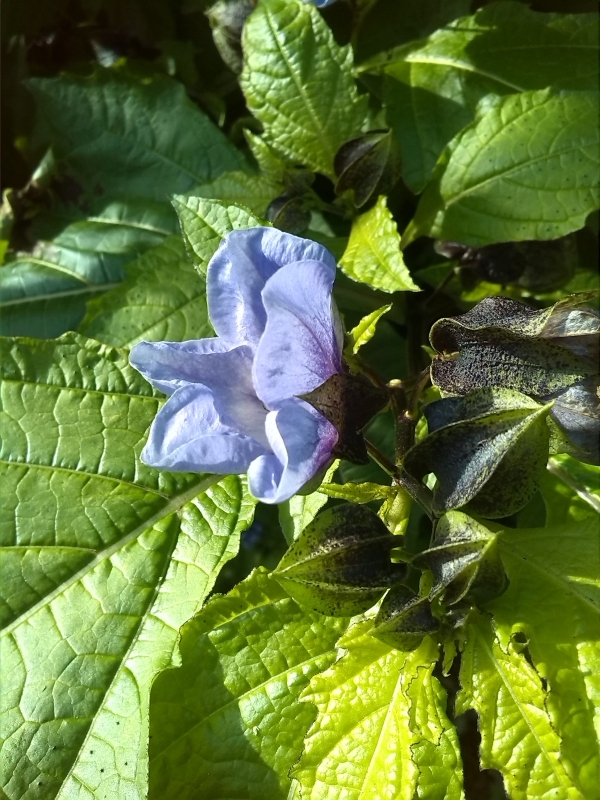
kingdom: Plantae
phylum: Tracheophyta
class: Magnoliopsida
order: Solanales
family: Solanaceae
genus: Nicandra
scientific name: Nicandra physalodes
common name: Apple-of-peru
